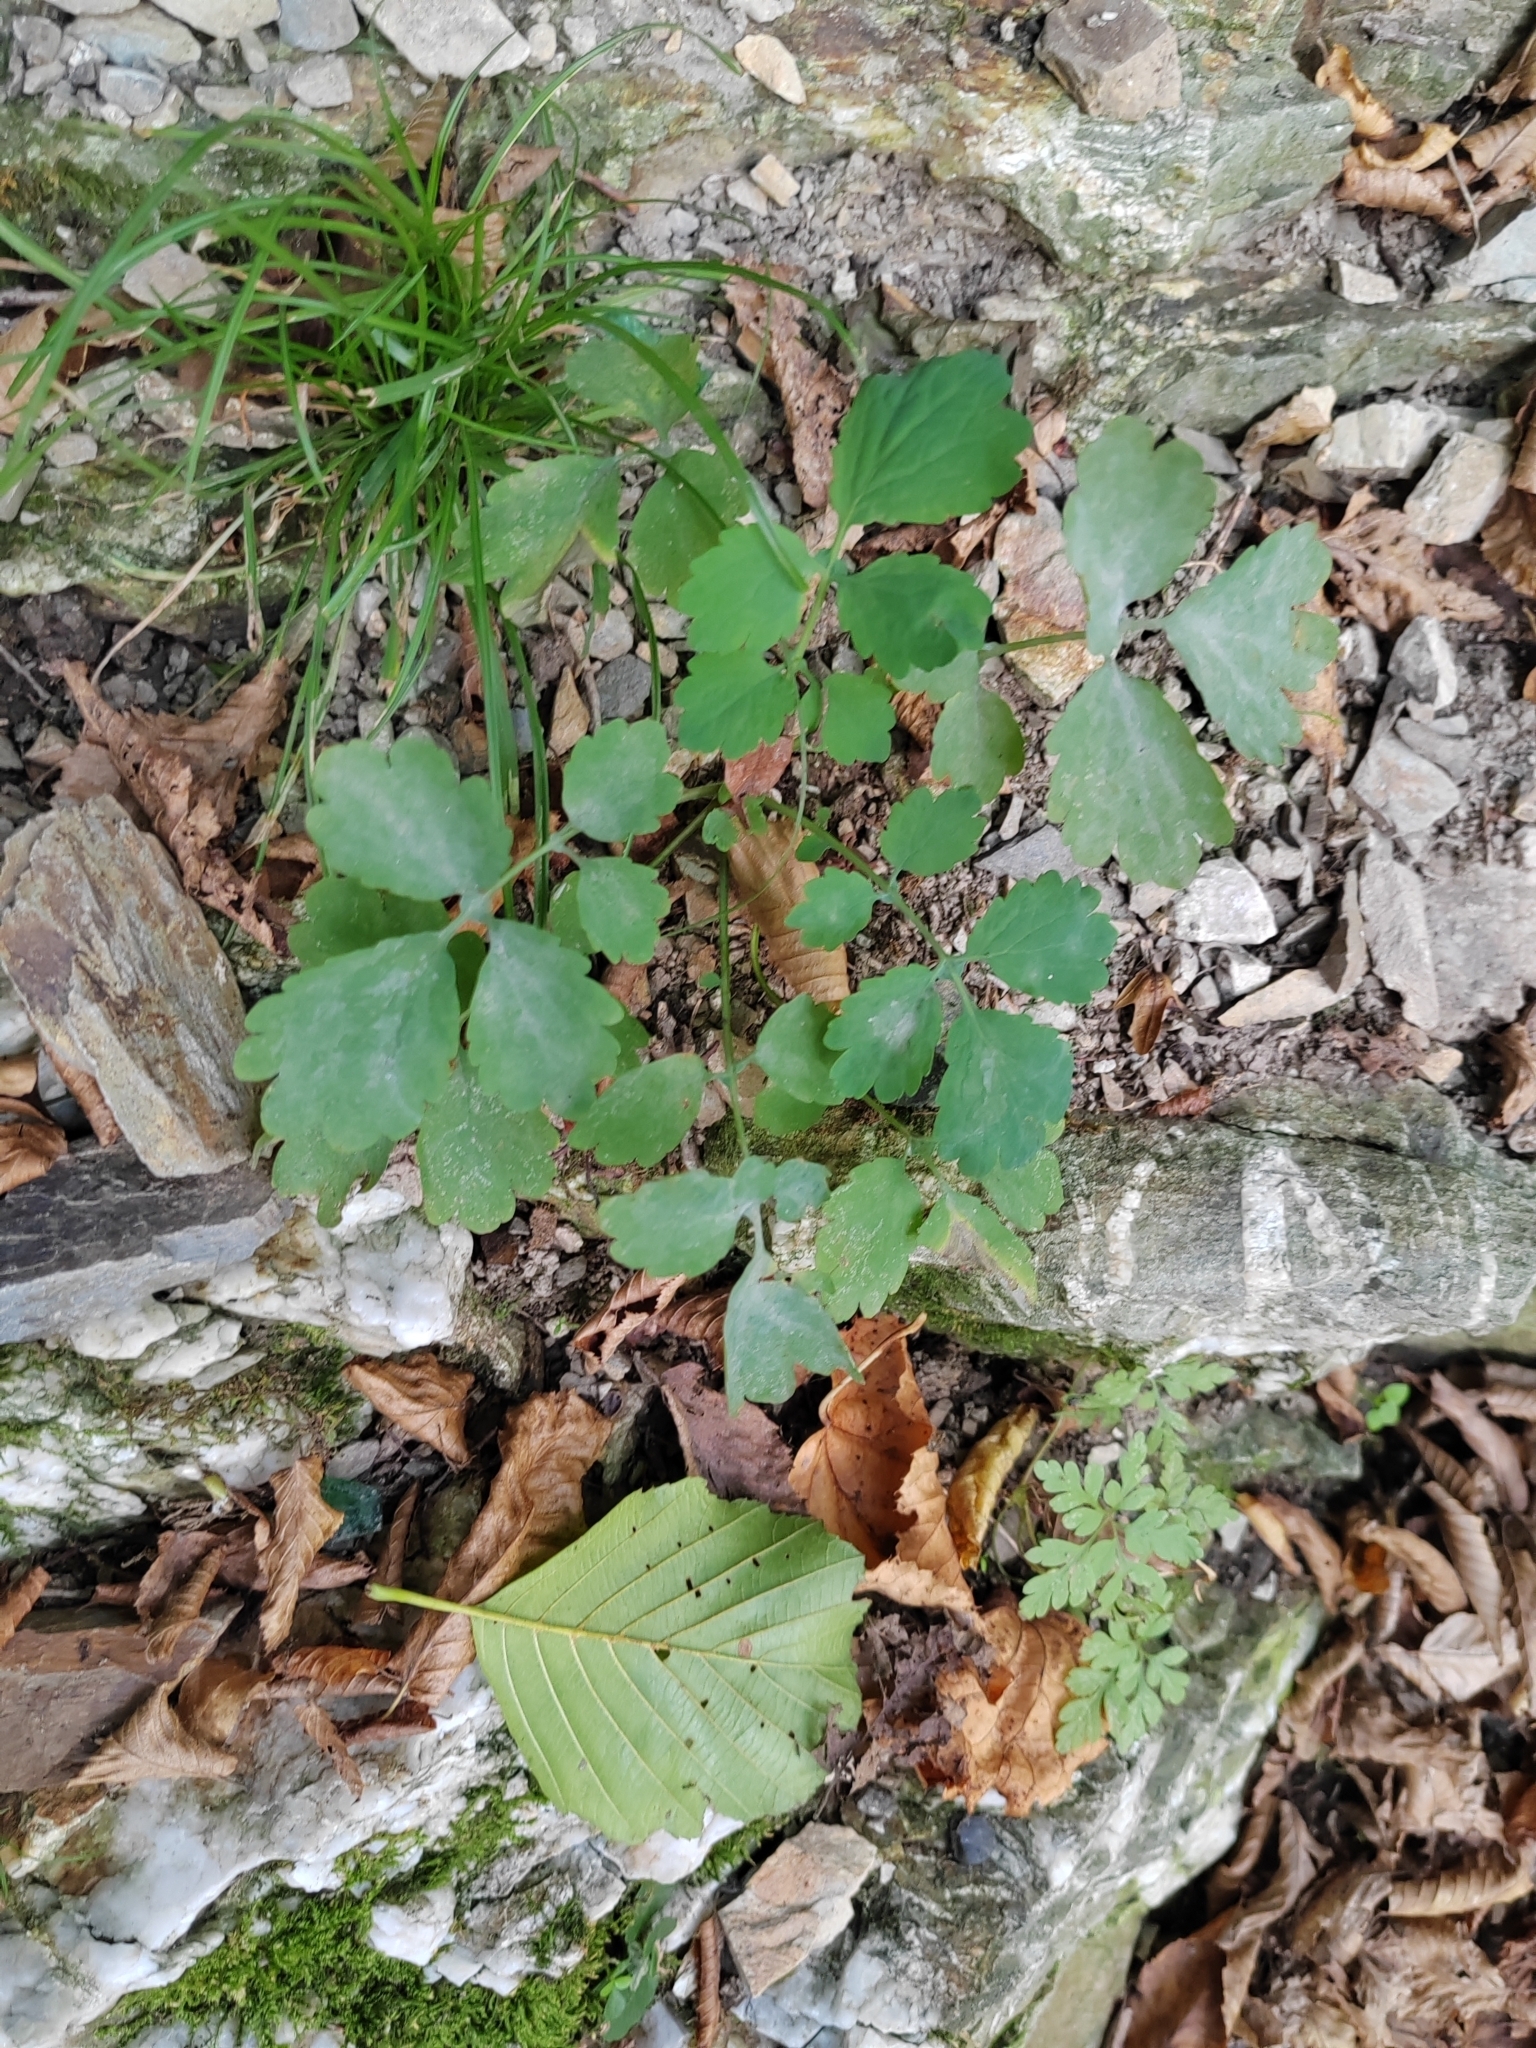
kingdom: Plantae
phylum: Tracheophyta
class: Magnoliopsida
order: Ranunculales
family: Papaveraceae
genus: Chelidonium
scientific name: Chelidonium majus
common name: Greater celandine
